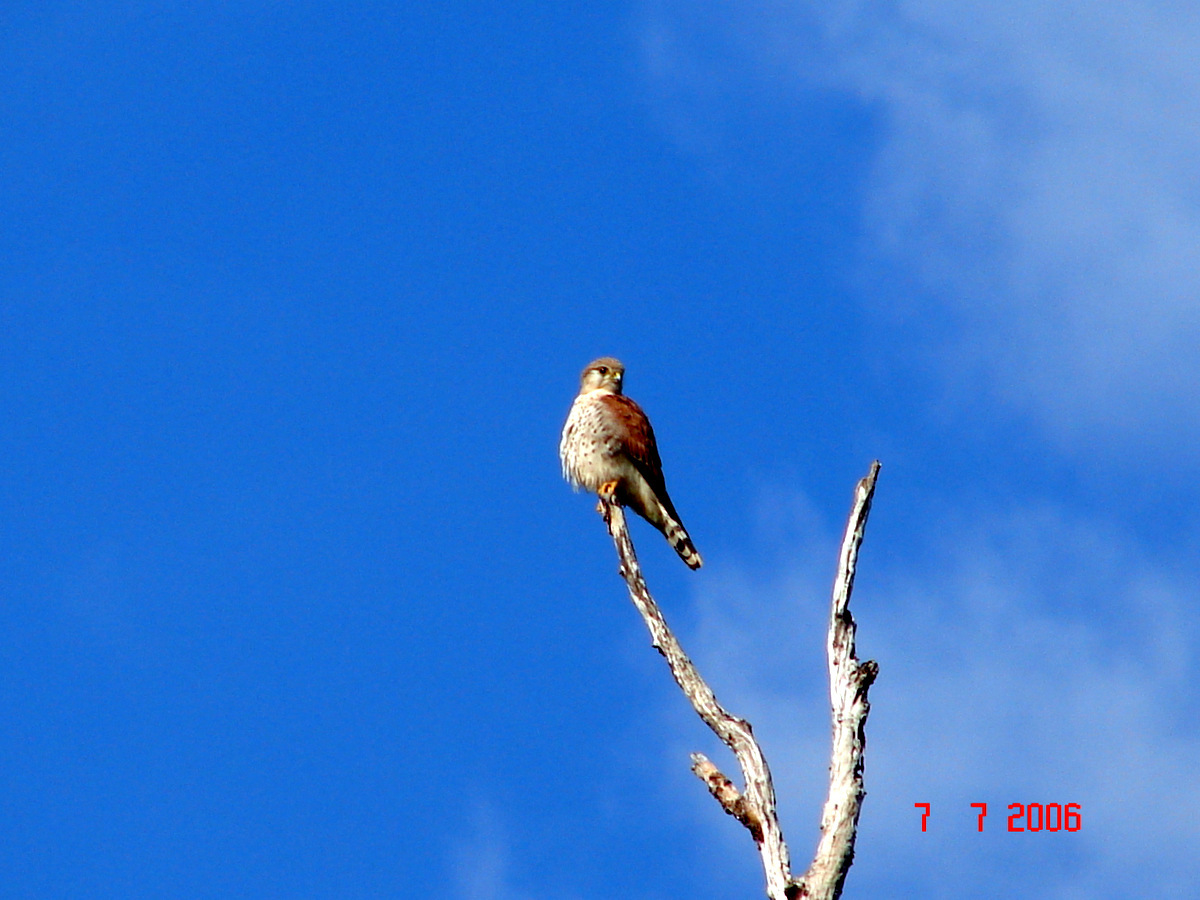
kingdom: Animalia
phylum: Chordata
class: Aves
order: Falconiformes
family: Falconidae
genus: Falco
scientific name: Falco newtoni
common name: Malagasy kestrel
